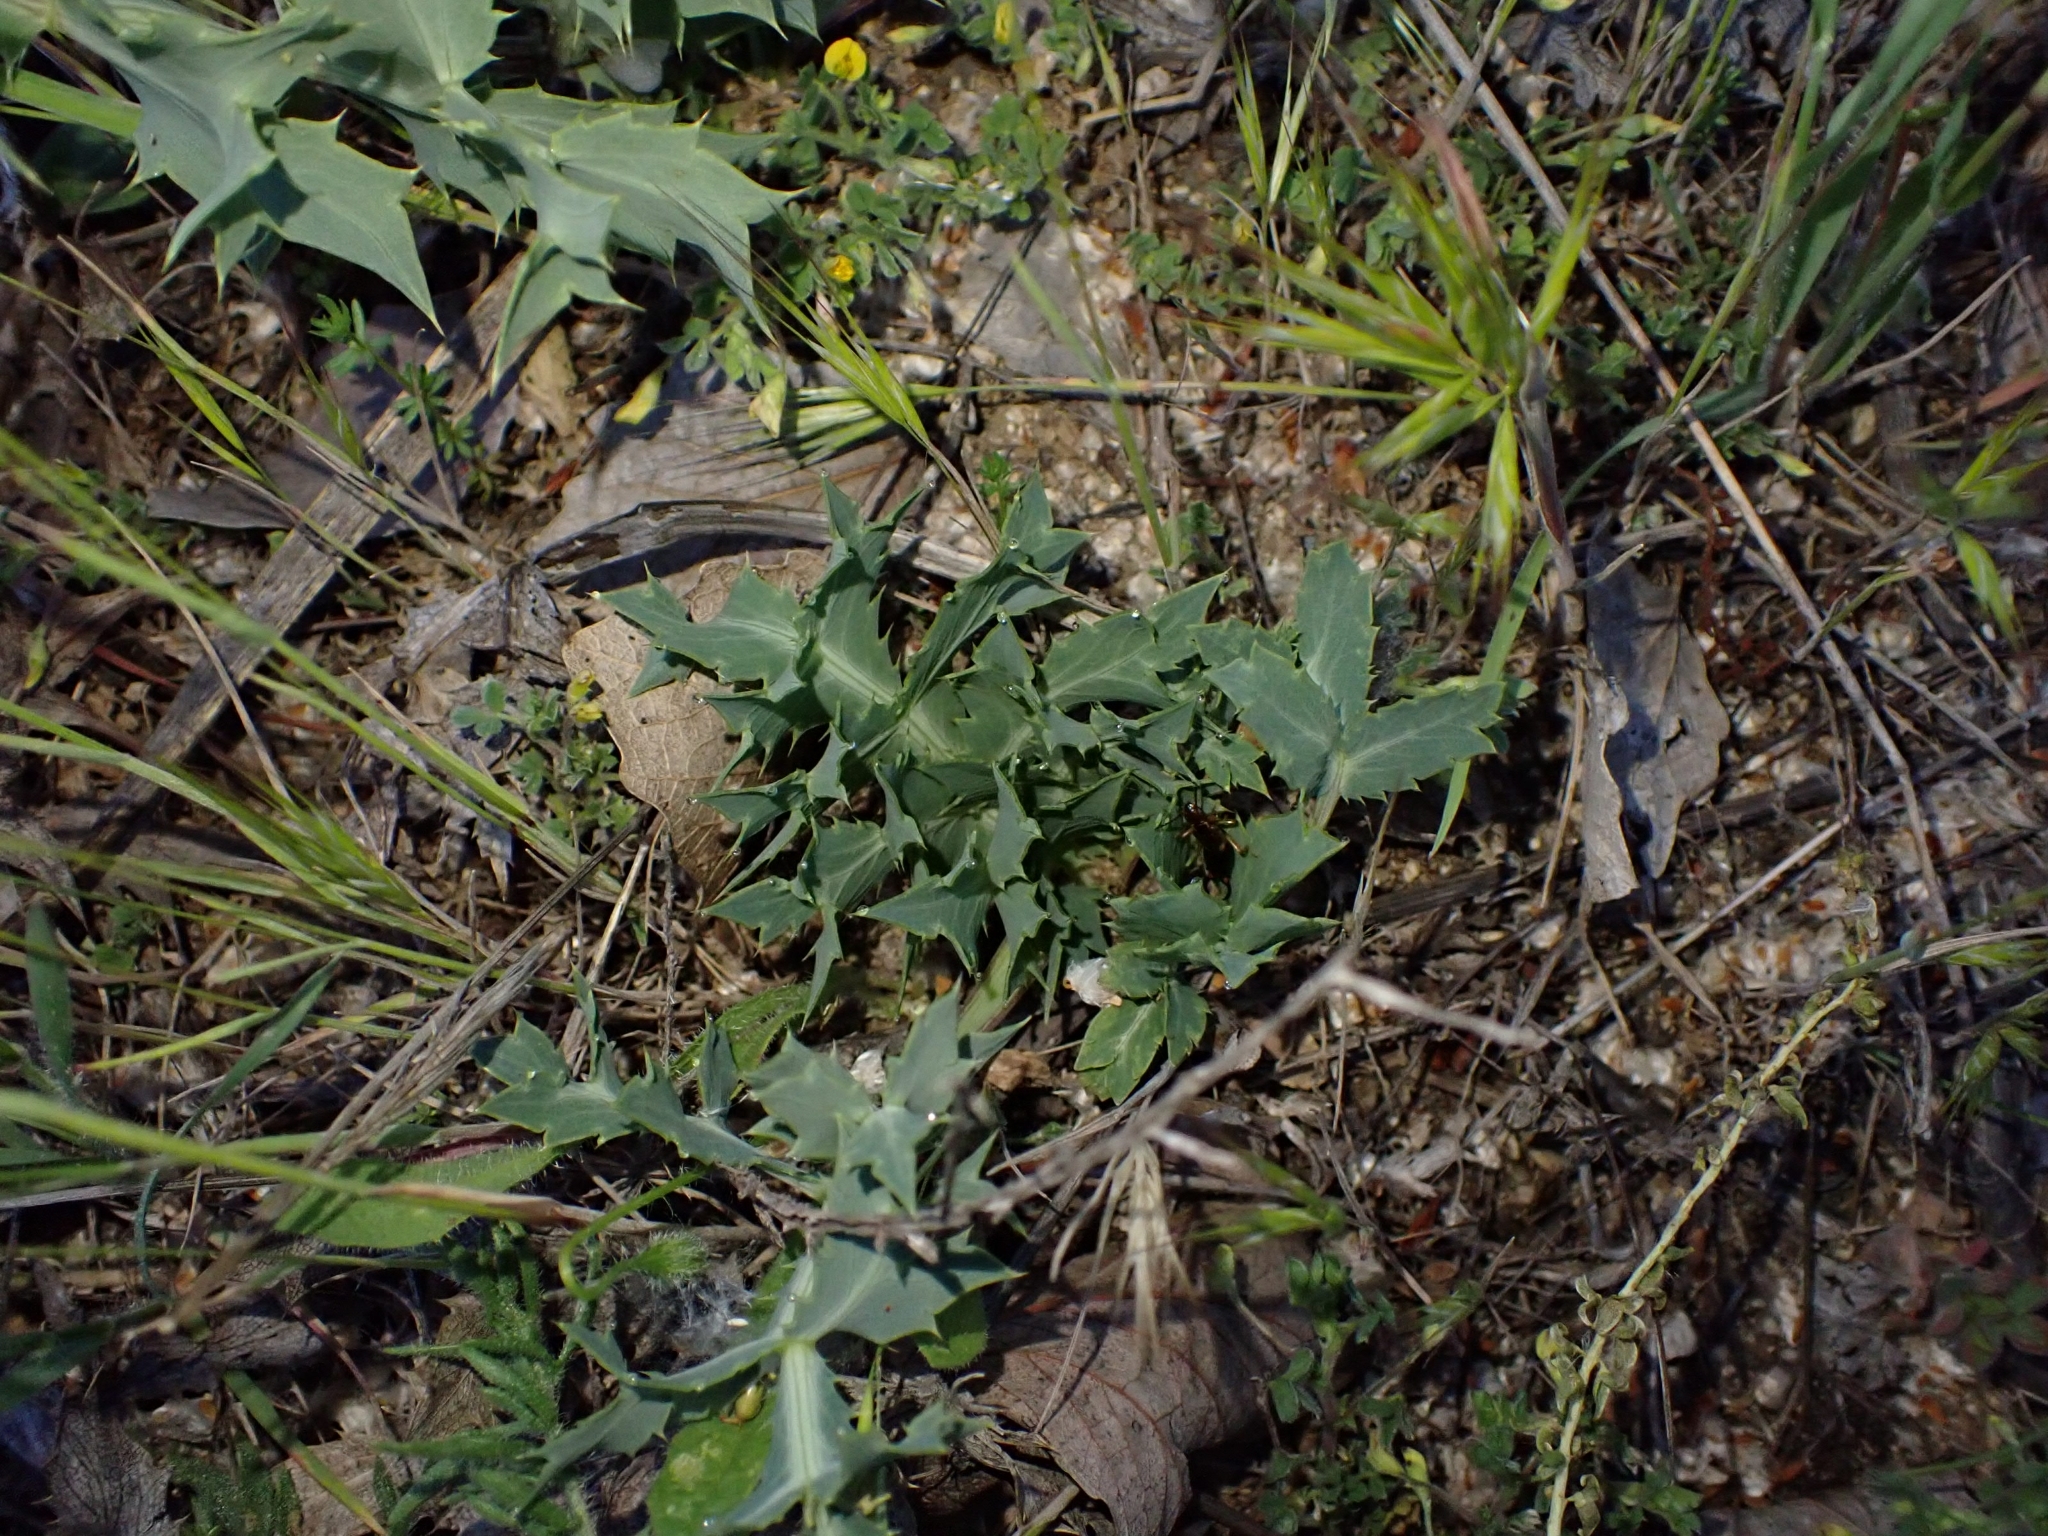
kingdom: Plantae
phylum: Tracheophyta
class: Magnoliopsida
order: Apiales
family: Apiaceae
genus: Eryngium
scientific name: Eryngium campestre
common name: Field eryngo
